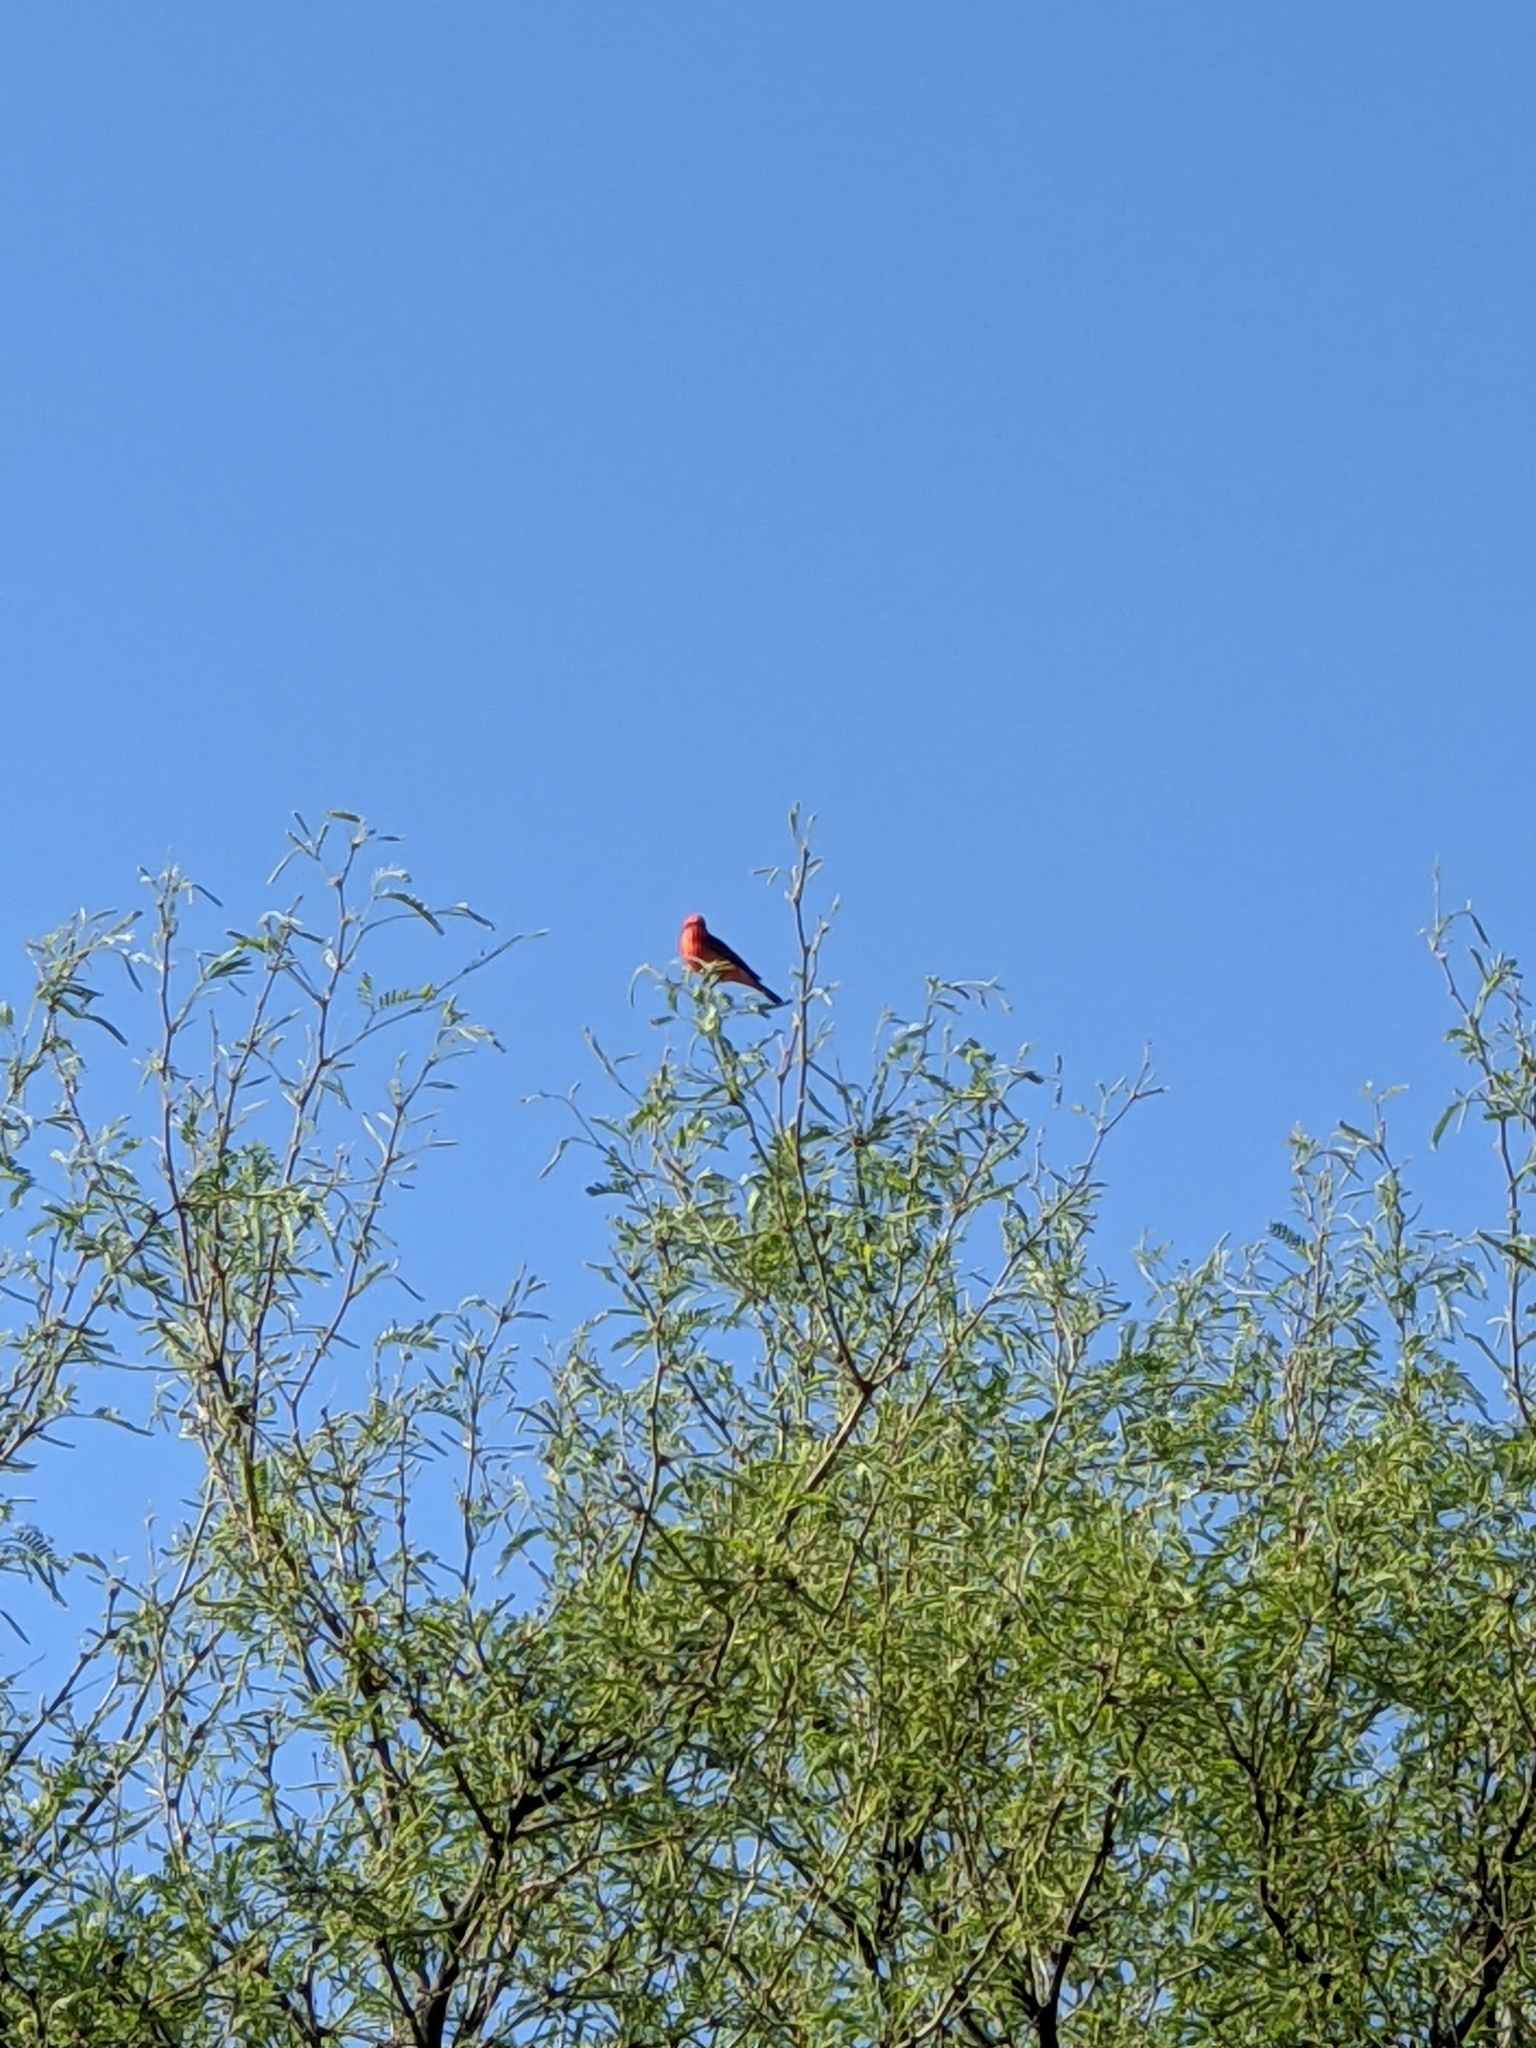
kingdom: Animalia
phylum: Chordata
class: Aves
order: Passeriformes
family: Tyrannidae
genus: Pyrocephalus
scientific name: Pyrocephalus rubinus
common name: Vermilion flycatcher
